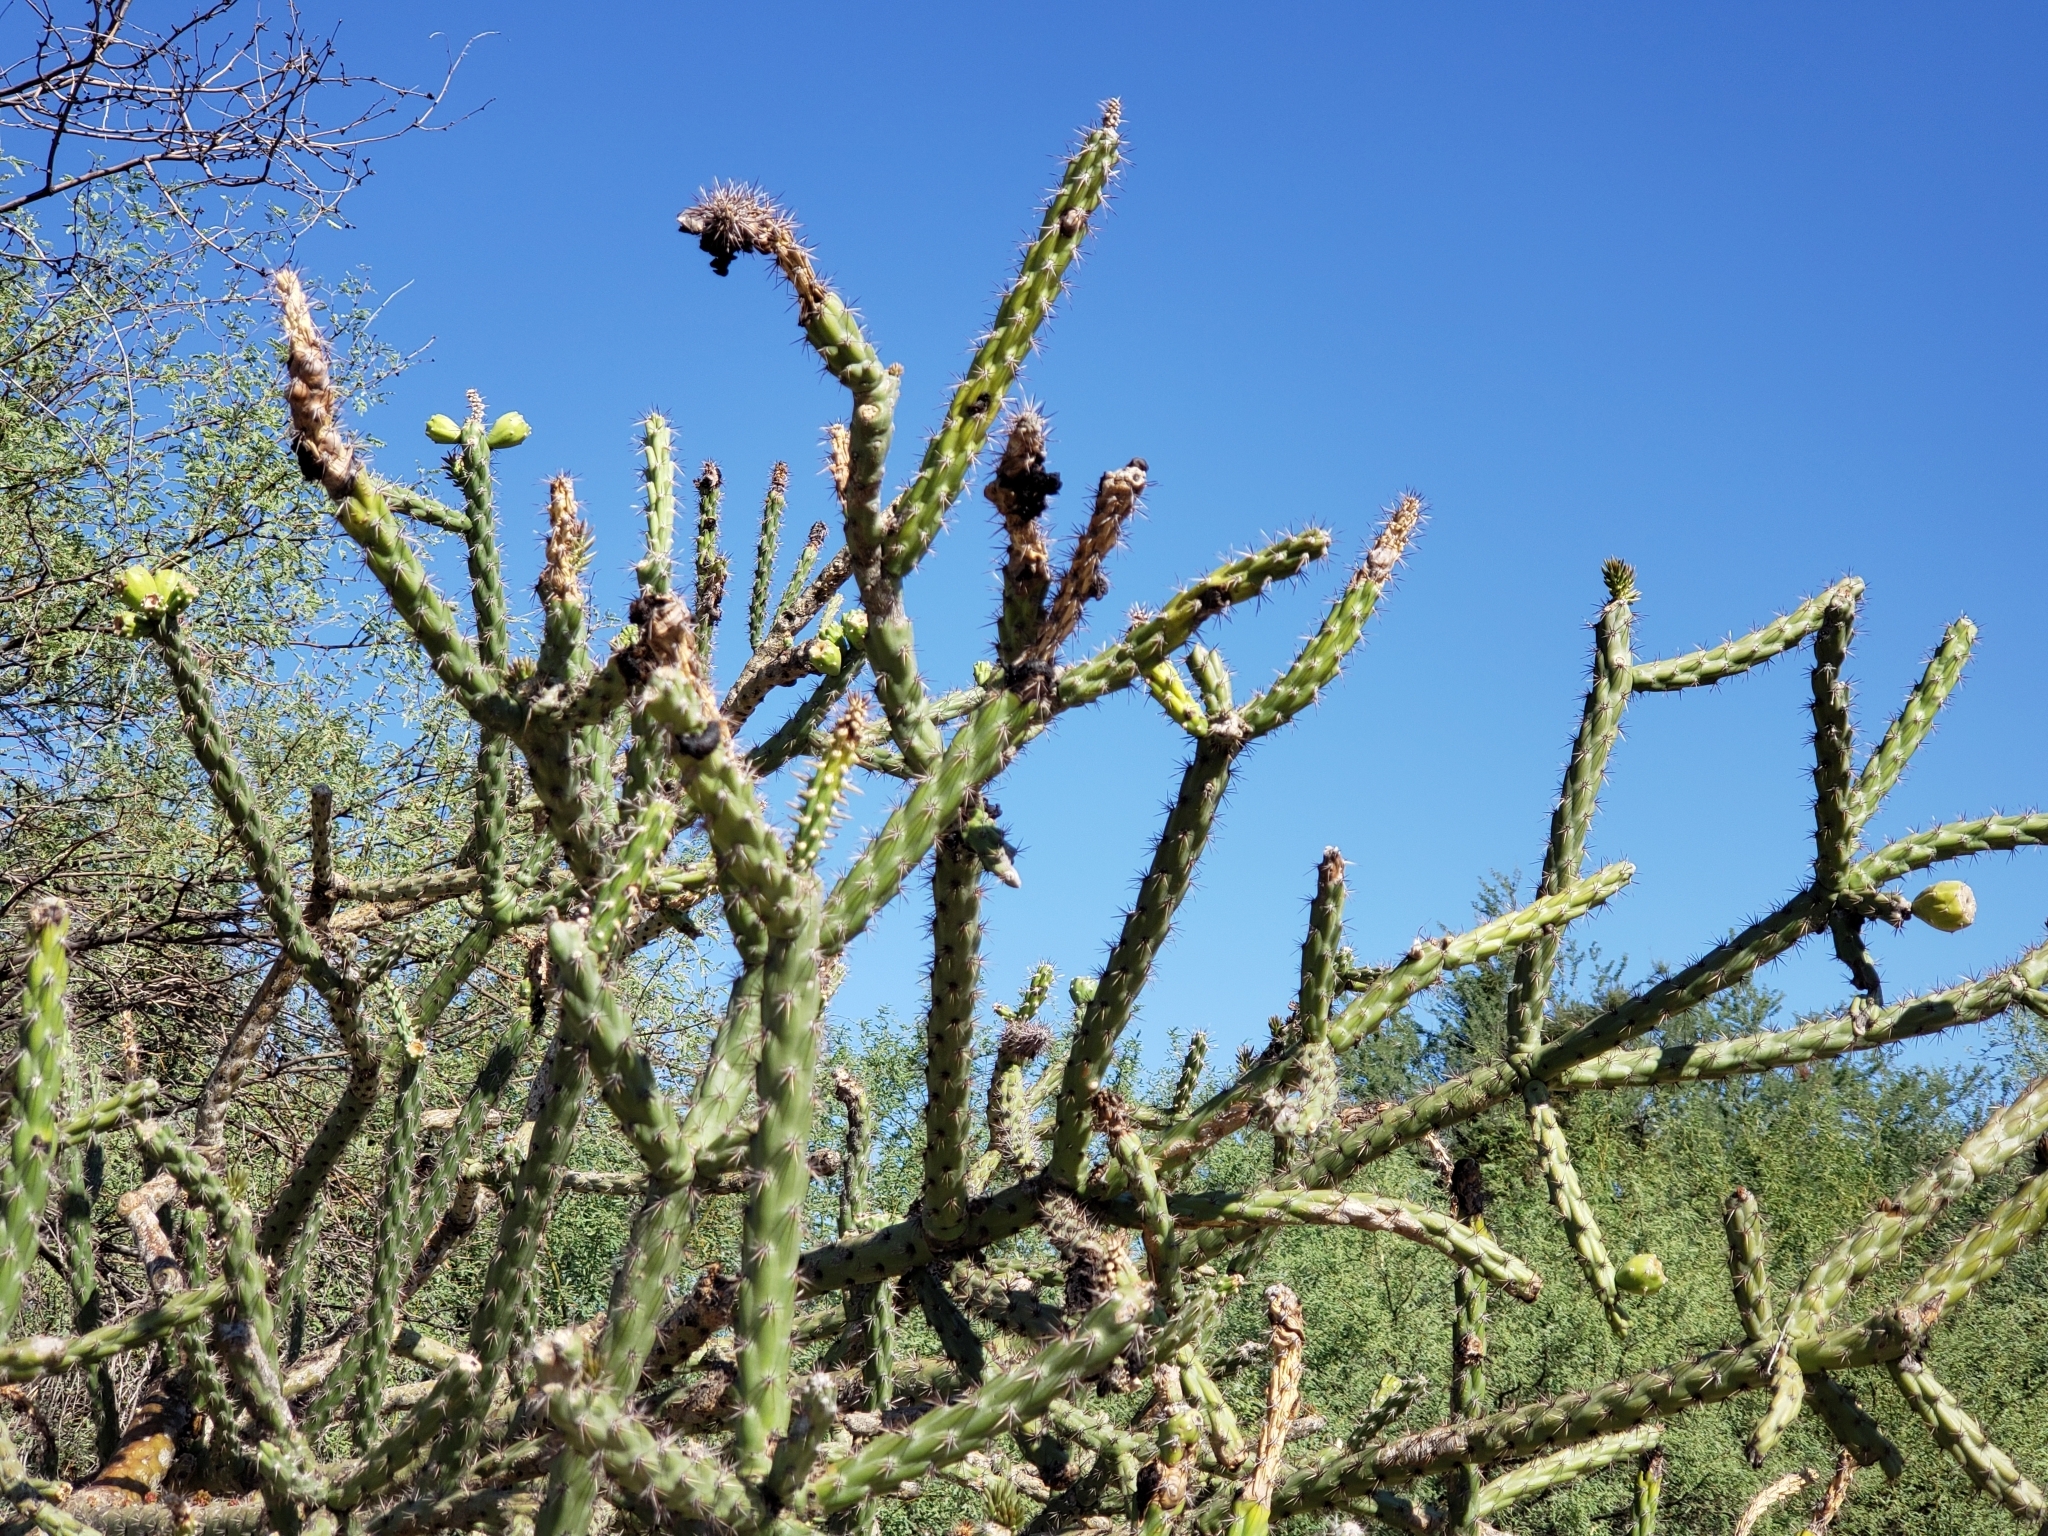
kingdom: Plantae
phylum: Tracheophyta
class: Magnoliopsida
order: Caryophyllales
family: Cactaceae
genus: Cylindropuntia
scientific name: Cylindropuntia thurberi
